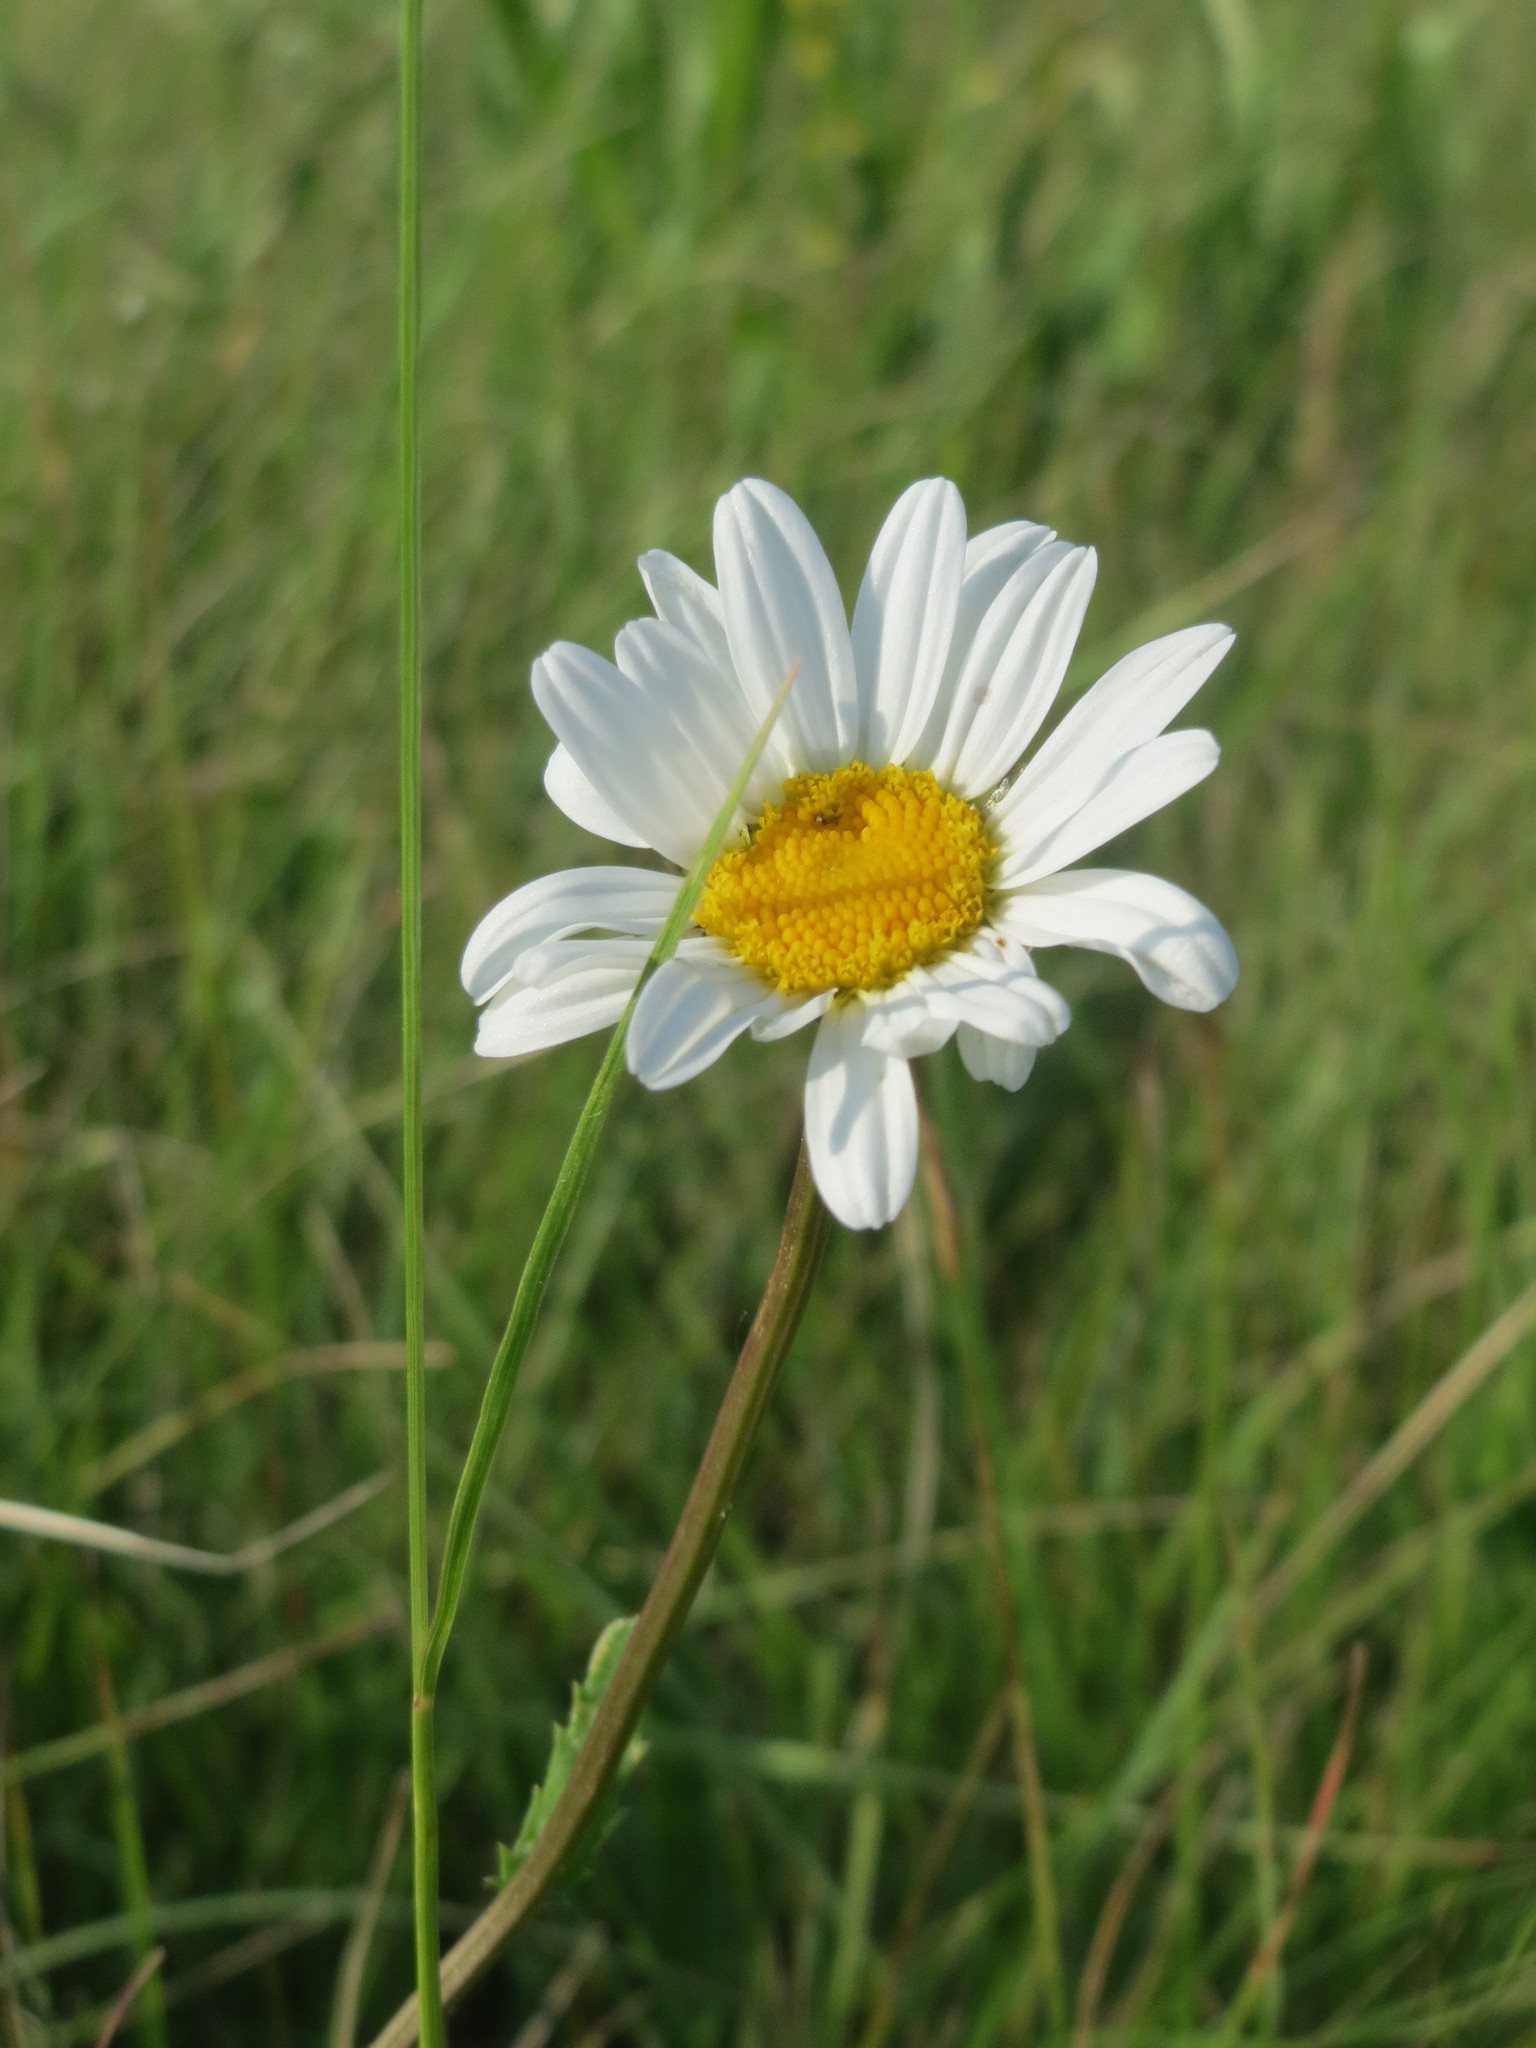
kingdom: Plantae
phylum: Tracheophyta
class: Magnoliopsida
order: Asterales
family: Asteraceae
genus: Leucanthemum
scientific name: Leucanthemum vulgare
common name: Oxeye daisy
